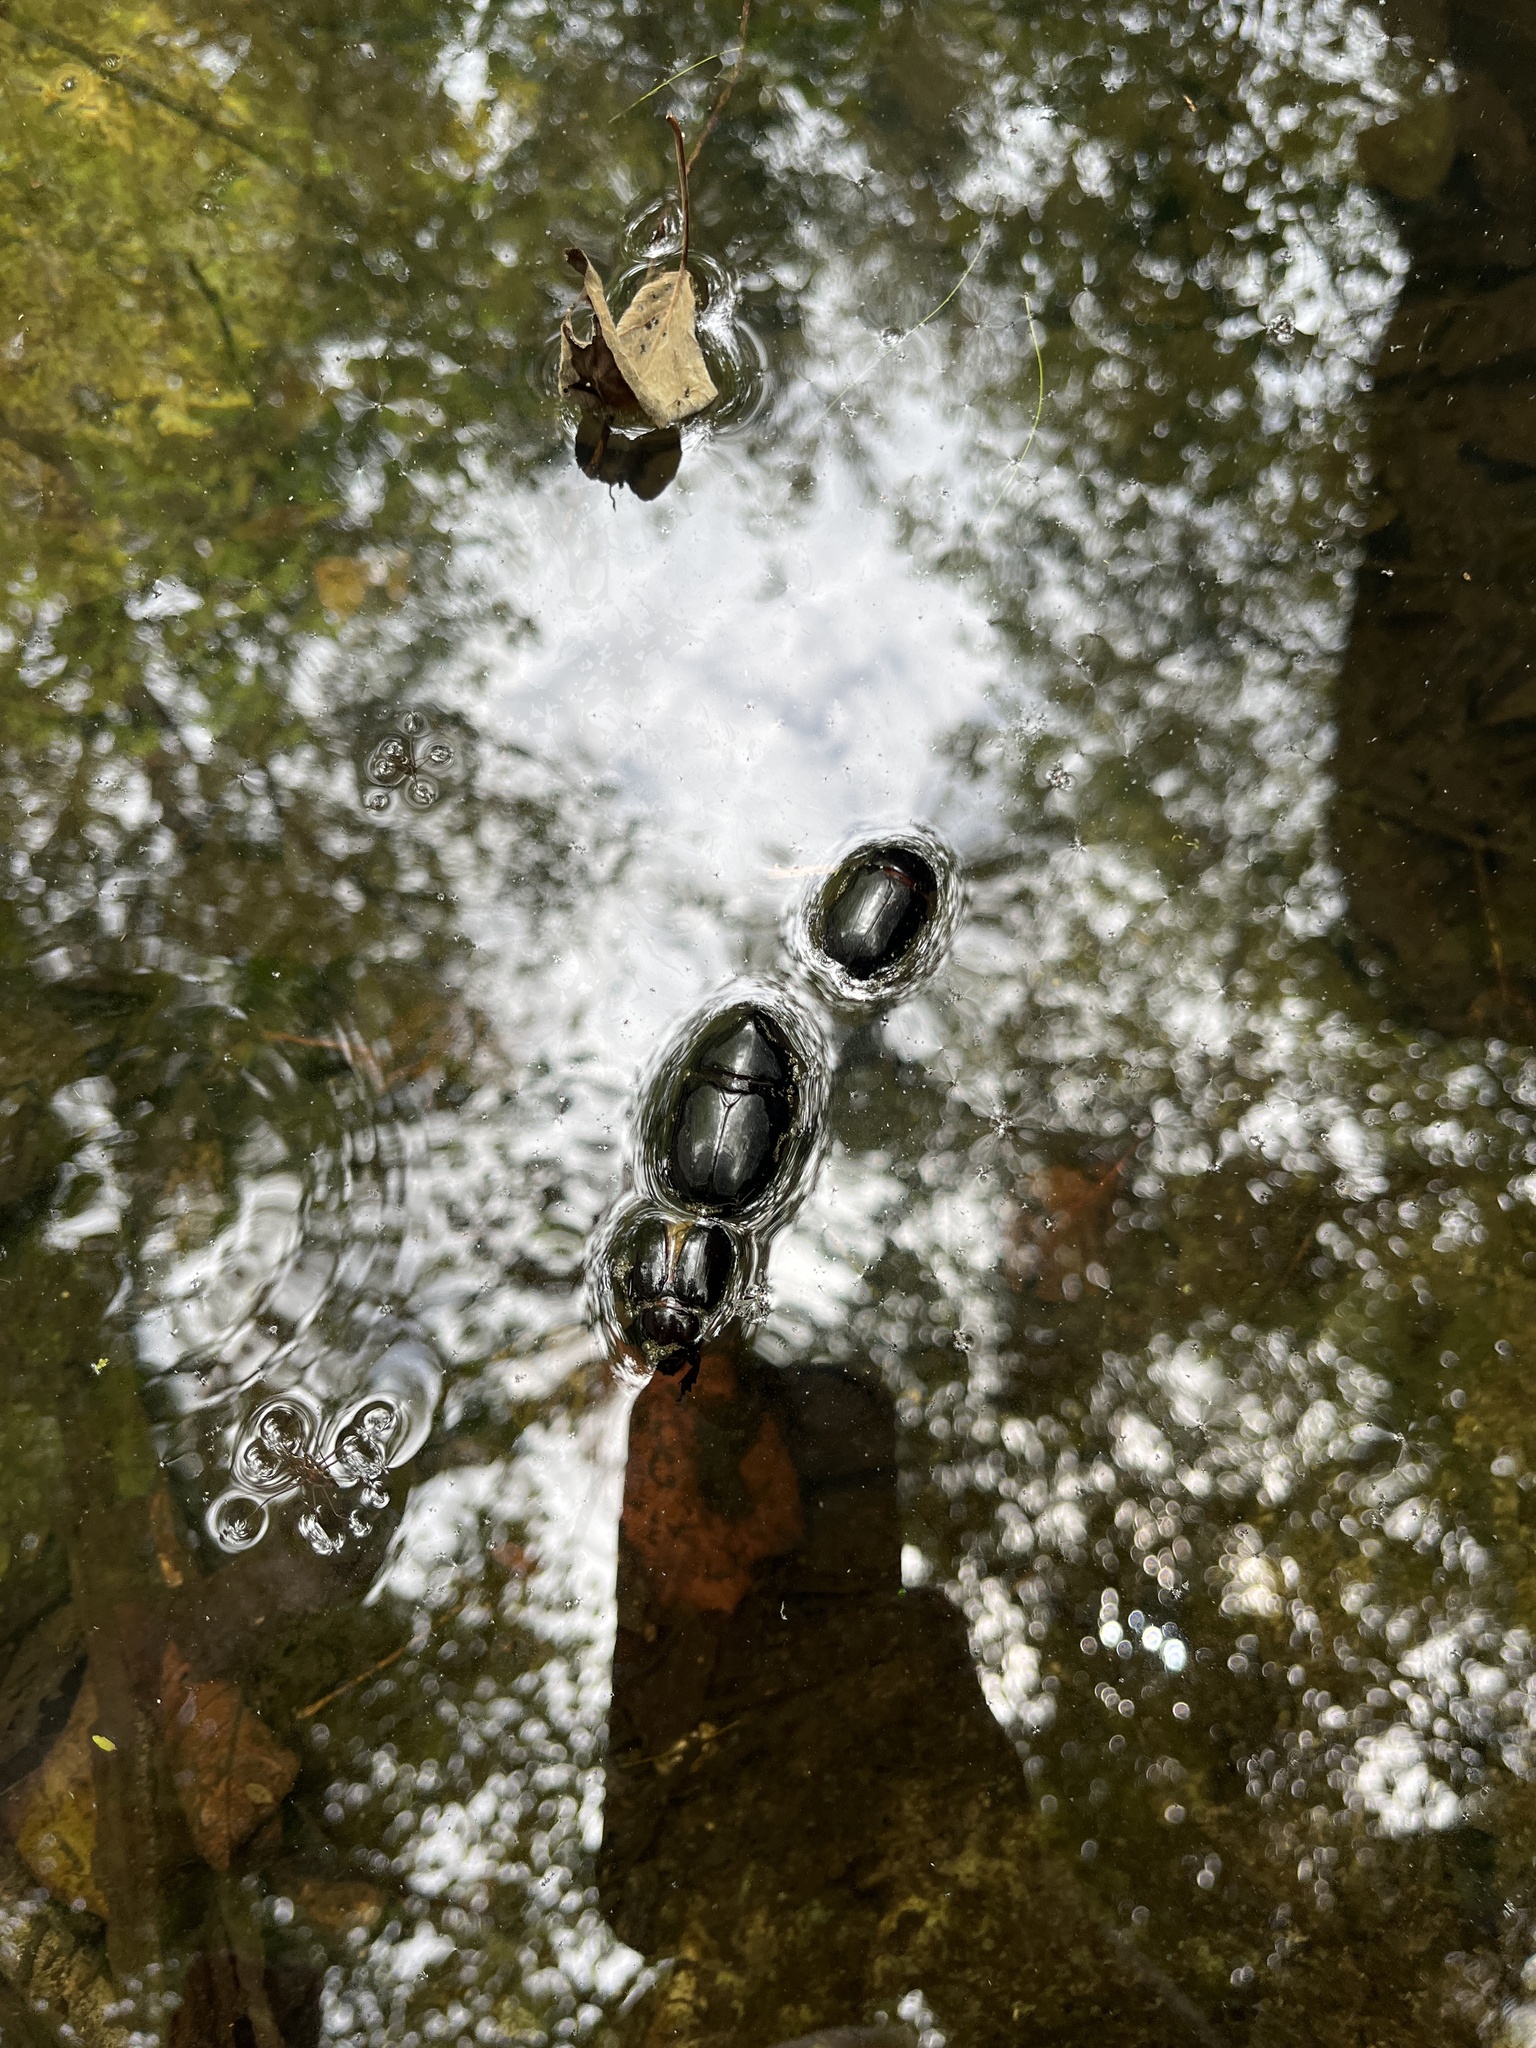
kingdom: Animalia
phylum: Arthropoda
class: Insecta
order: Coleoptera
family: Scarabaeidae
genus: Xyloryctes
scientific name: Xyloryctes thestalus
